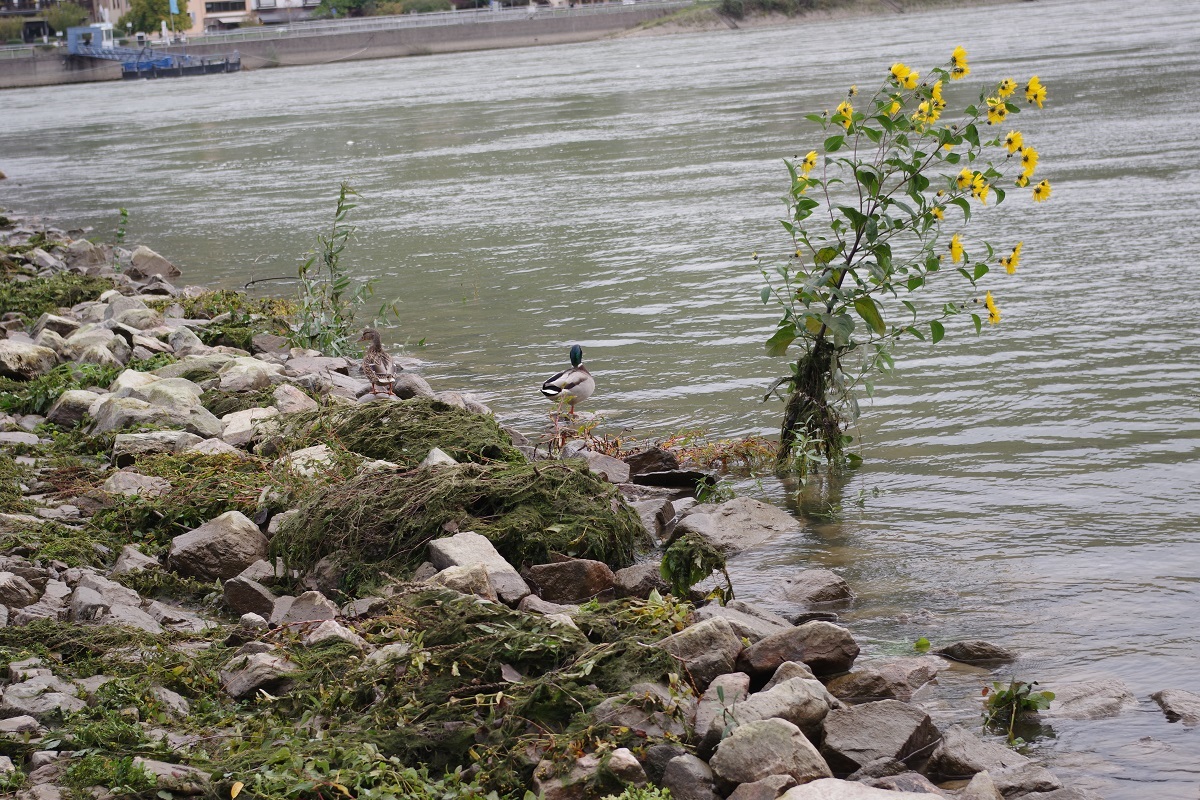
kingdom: Animalia
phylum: Chordata
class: Aves
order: Anseriformes
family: Anatidae
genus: Anas
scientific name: Anas platyrhynchos
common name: Mallard
